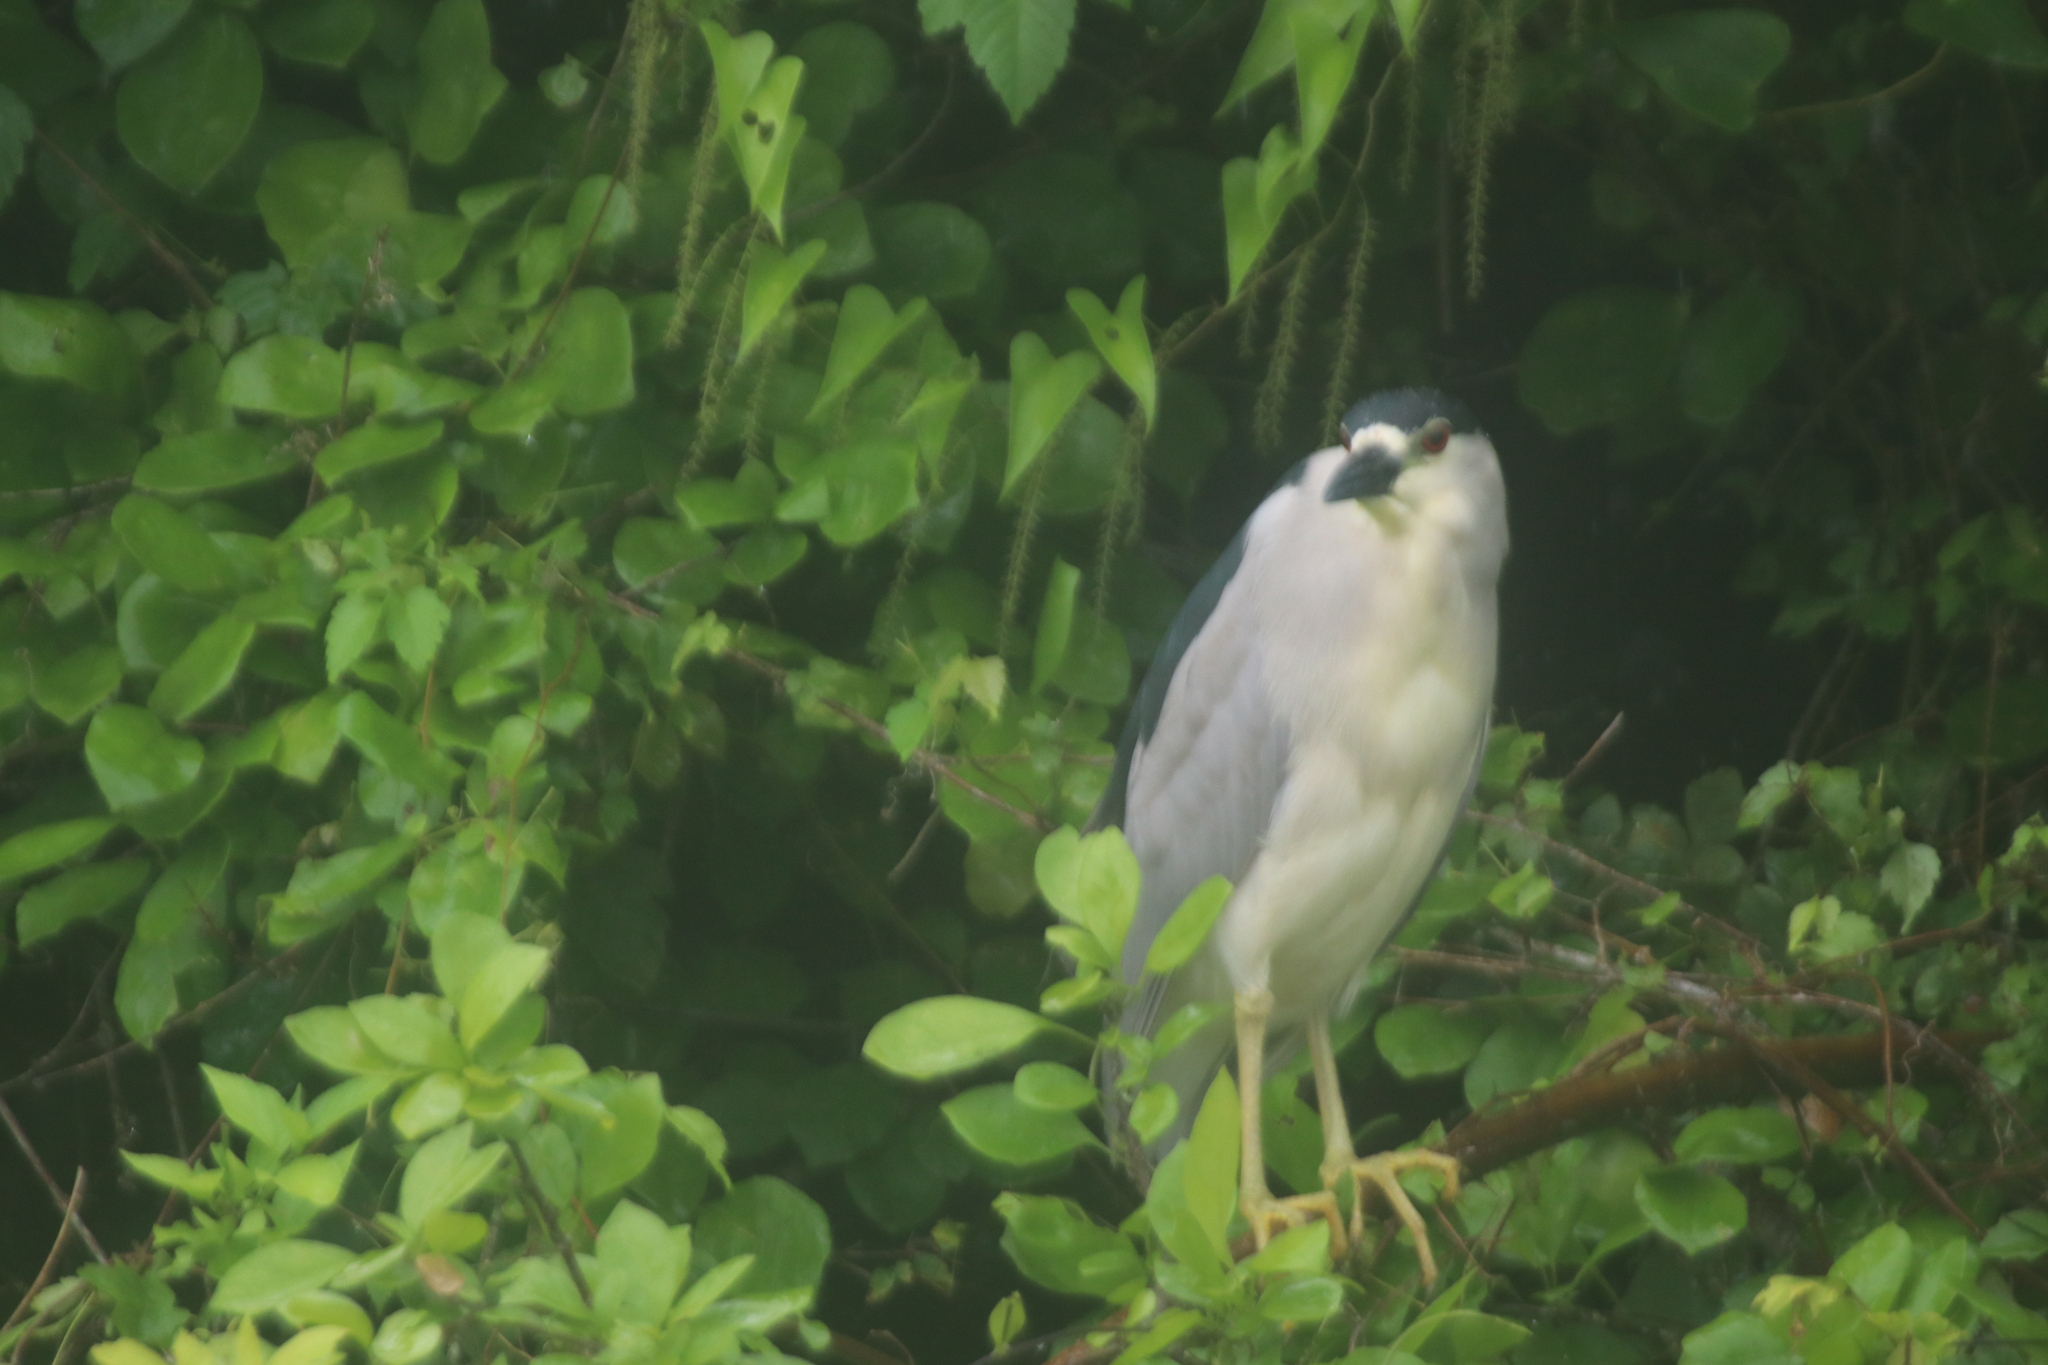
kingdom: Animalia
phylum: Chordata
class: Aves
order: Pelecaniformes
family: Ardeidae
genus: Nycticorax
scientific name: Nycticorax nycticorax
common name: Black-crowned night heron
